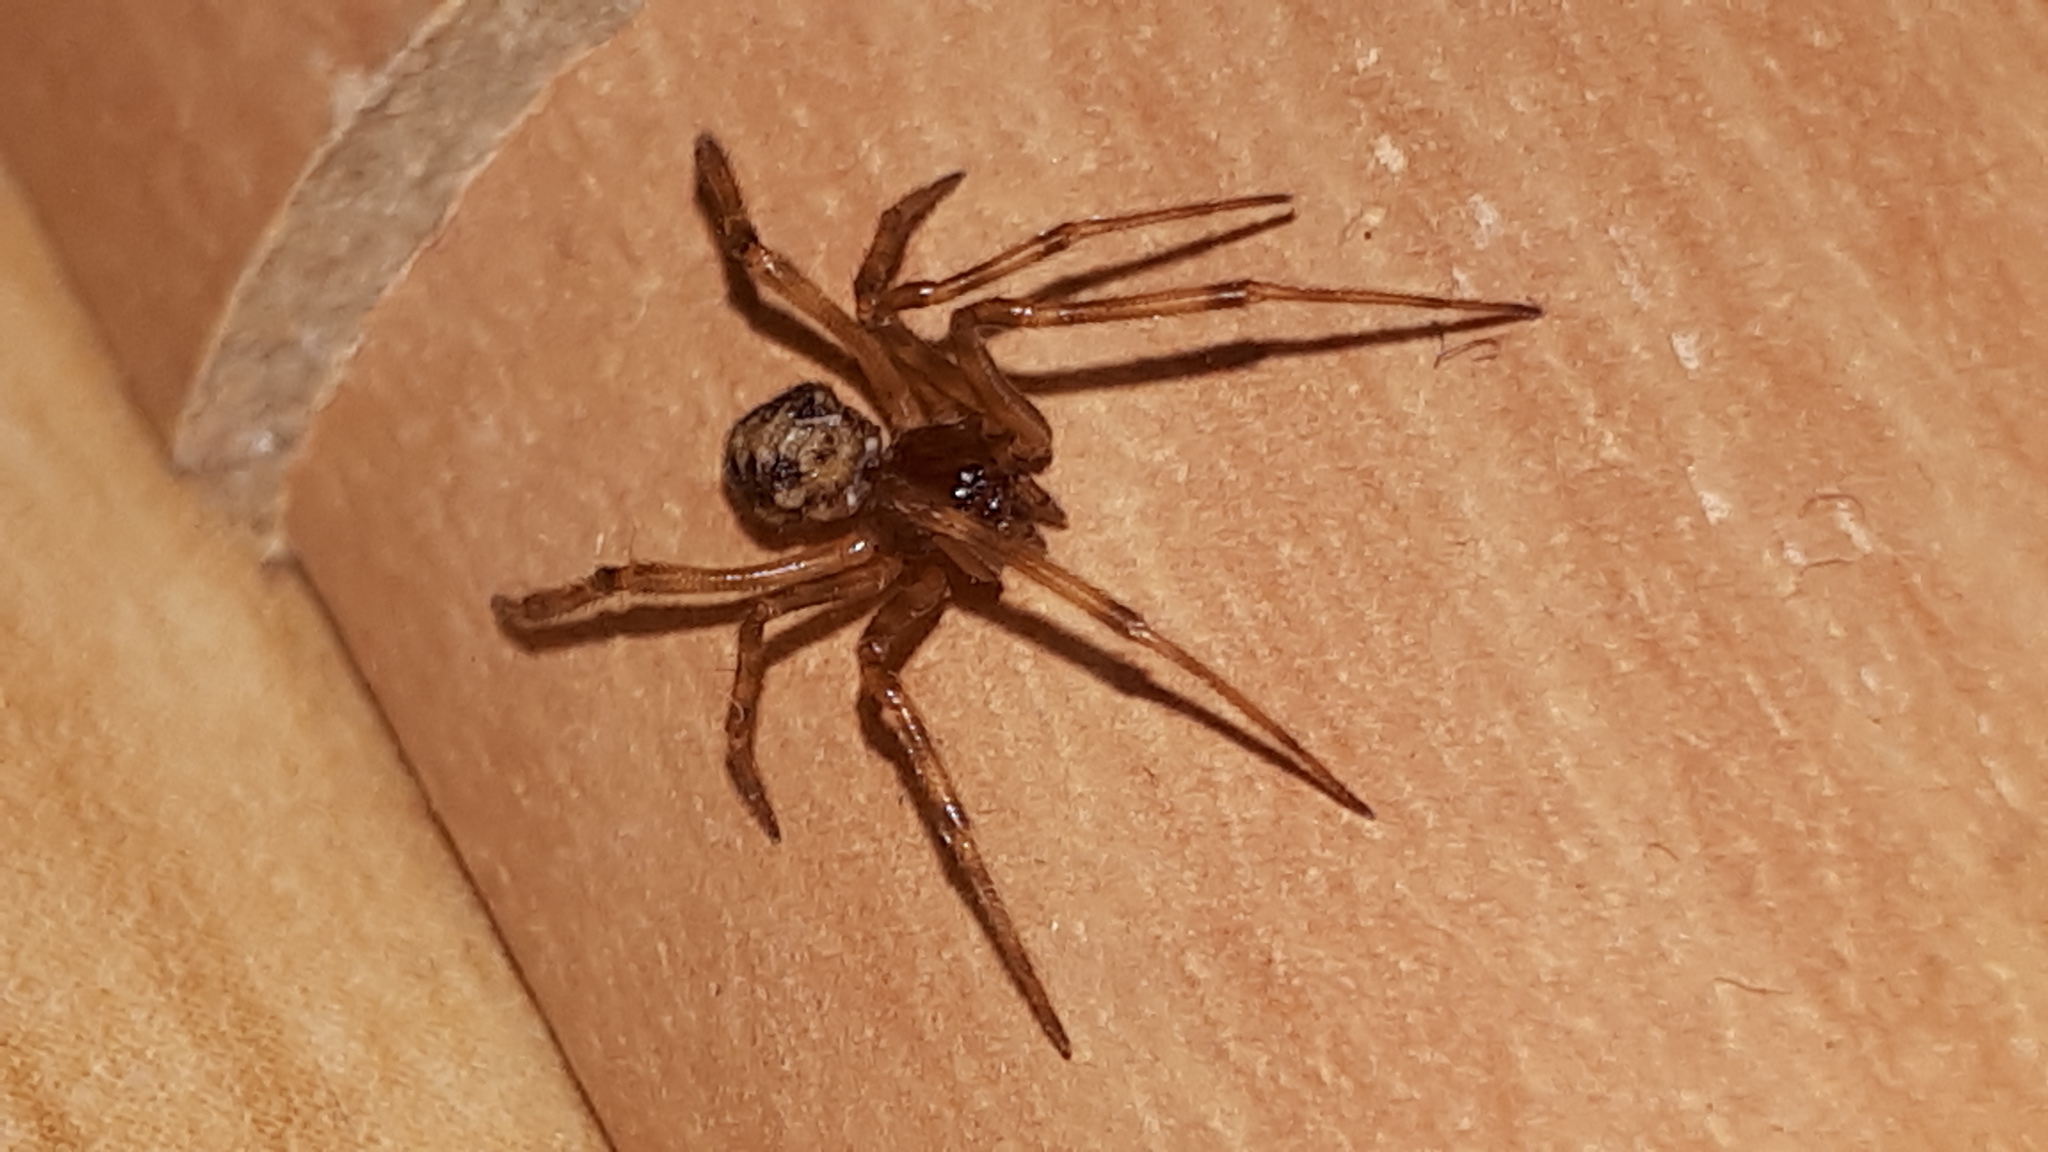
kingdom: Animalia
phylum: Arthropoda
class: Arachnida
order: Araneae
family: Theridiidae
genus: Steatoda
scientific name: Steatoda triangulosa
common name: Triangulate bud spider
